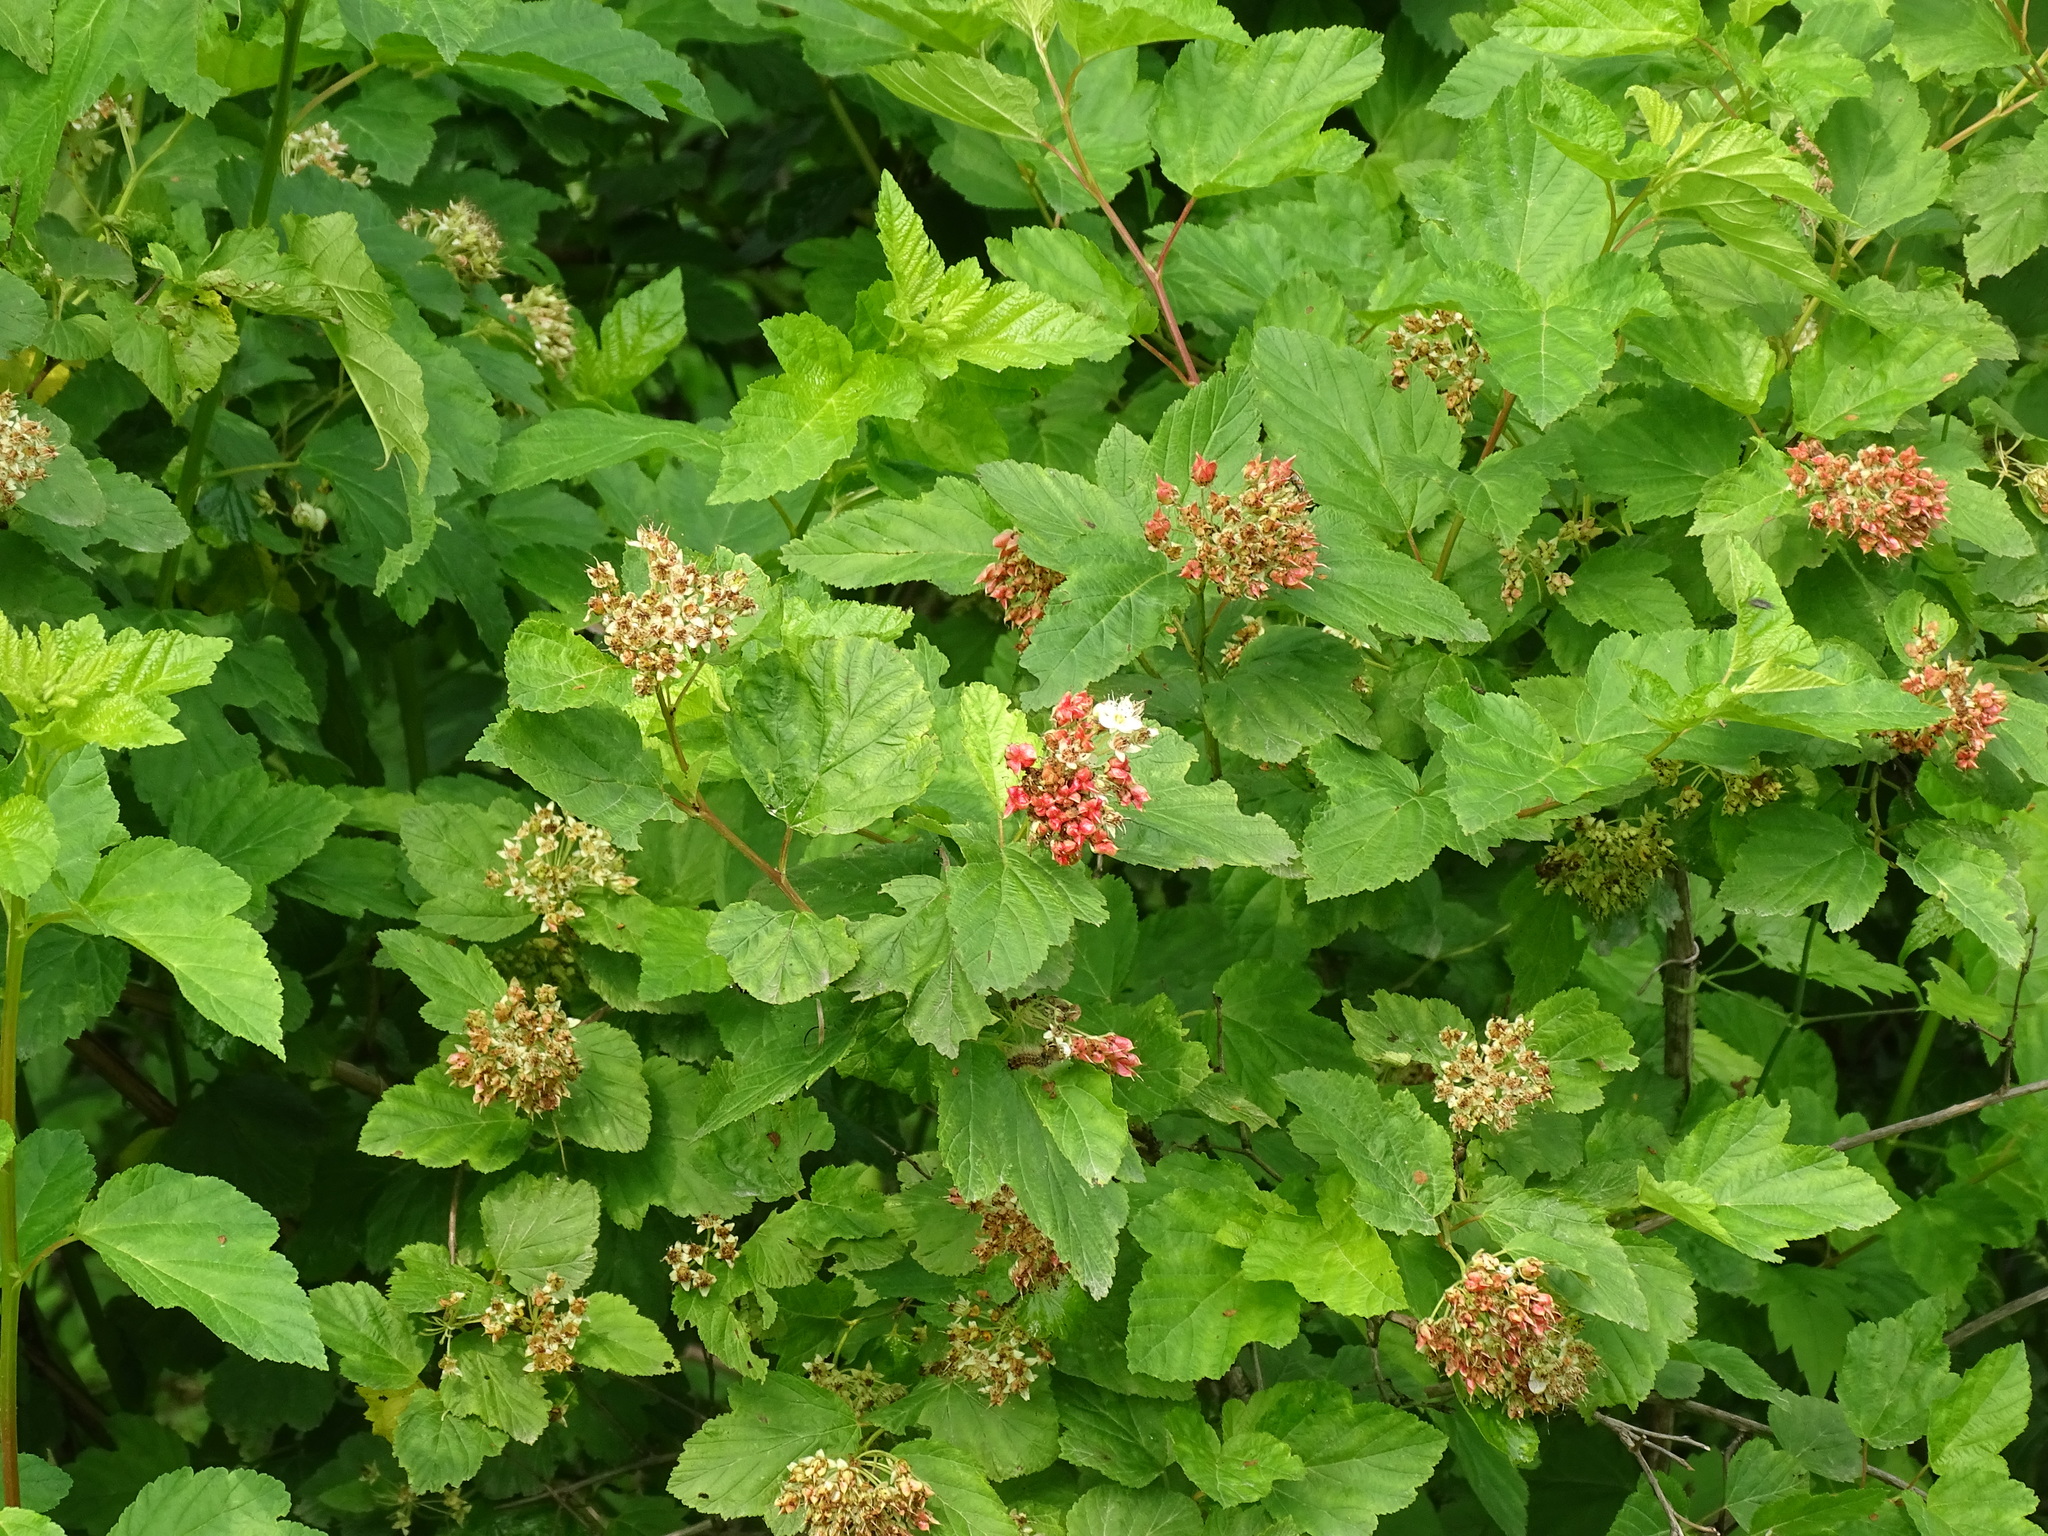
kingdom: Plantae
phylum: Tracheophyta
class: Magnoliopsida
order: Rosales
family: Rosaceae
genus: Physocarpus
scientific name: Physocarpus opulifolius
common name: Ninebark
